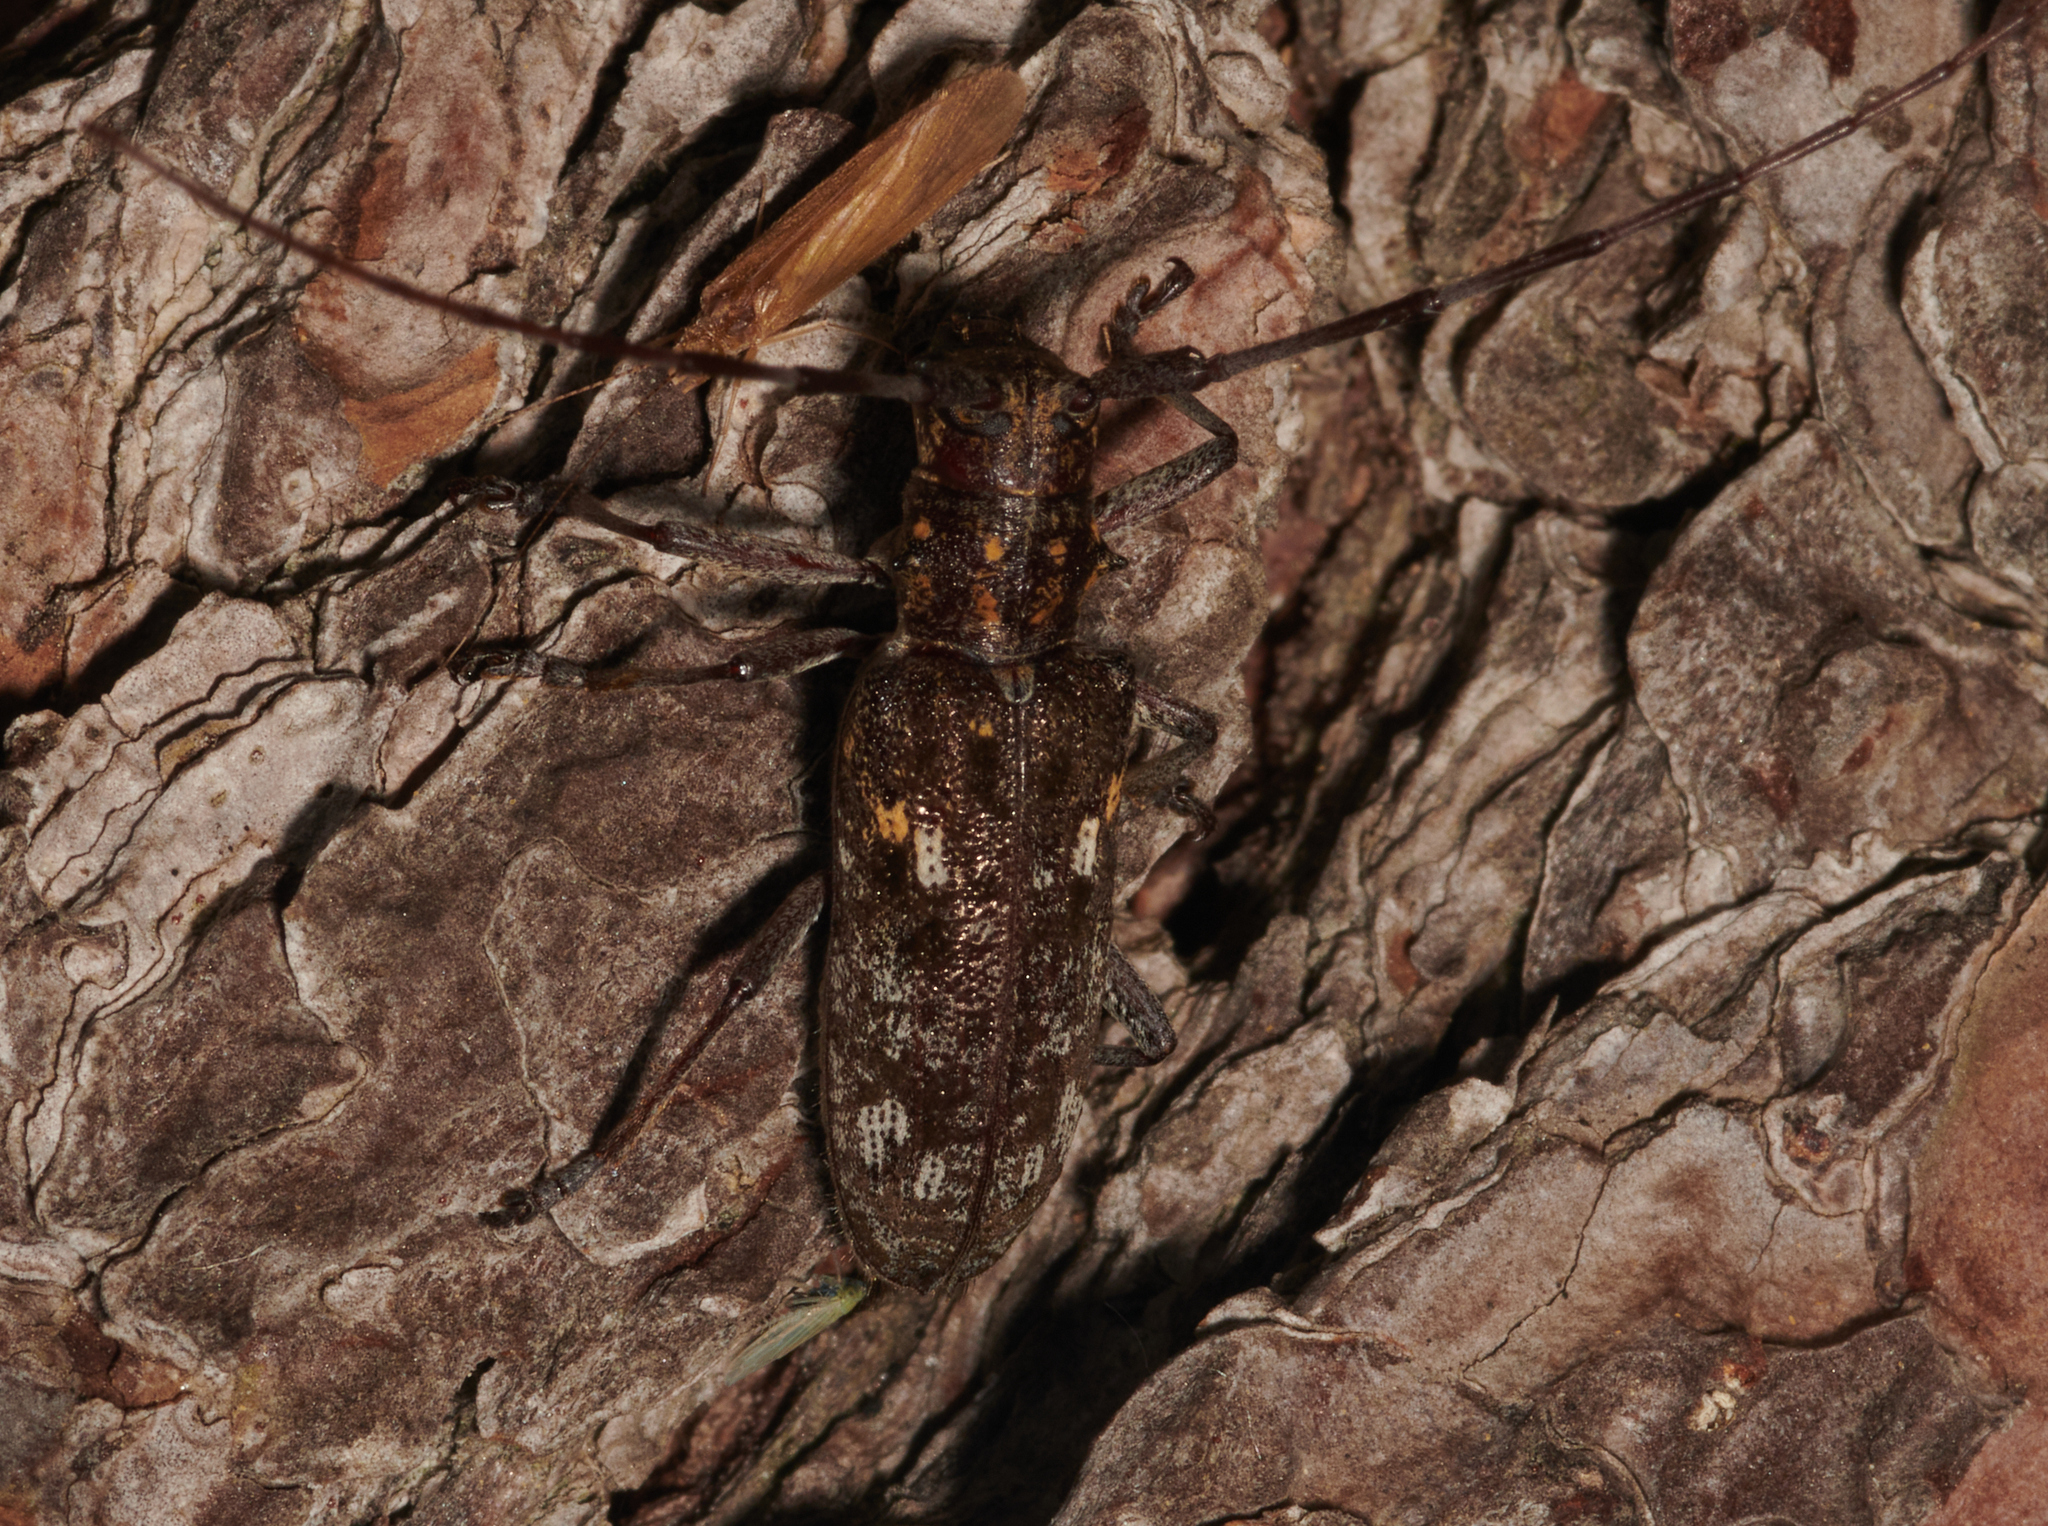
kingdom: Animalia
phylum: Arthropoda
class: Insecta
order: Coleoptera
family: Cerambycidae
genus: Monochamus
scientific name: Monochamus carolinensis
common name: Carolina pine sawyer
